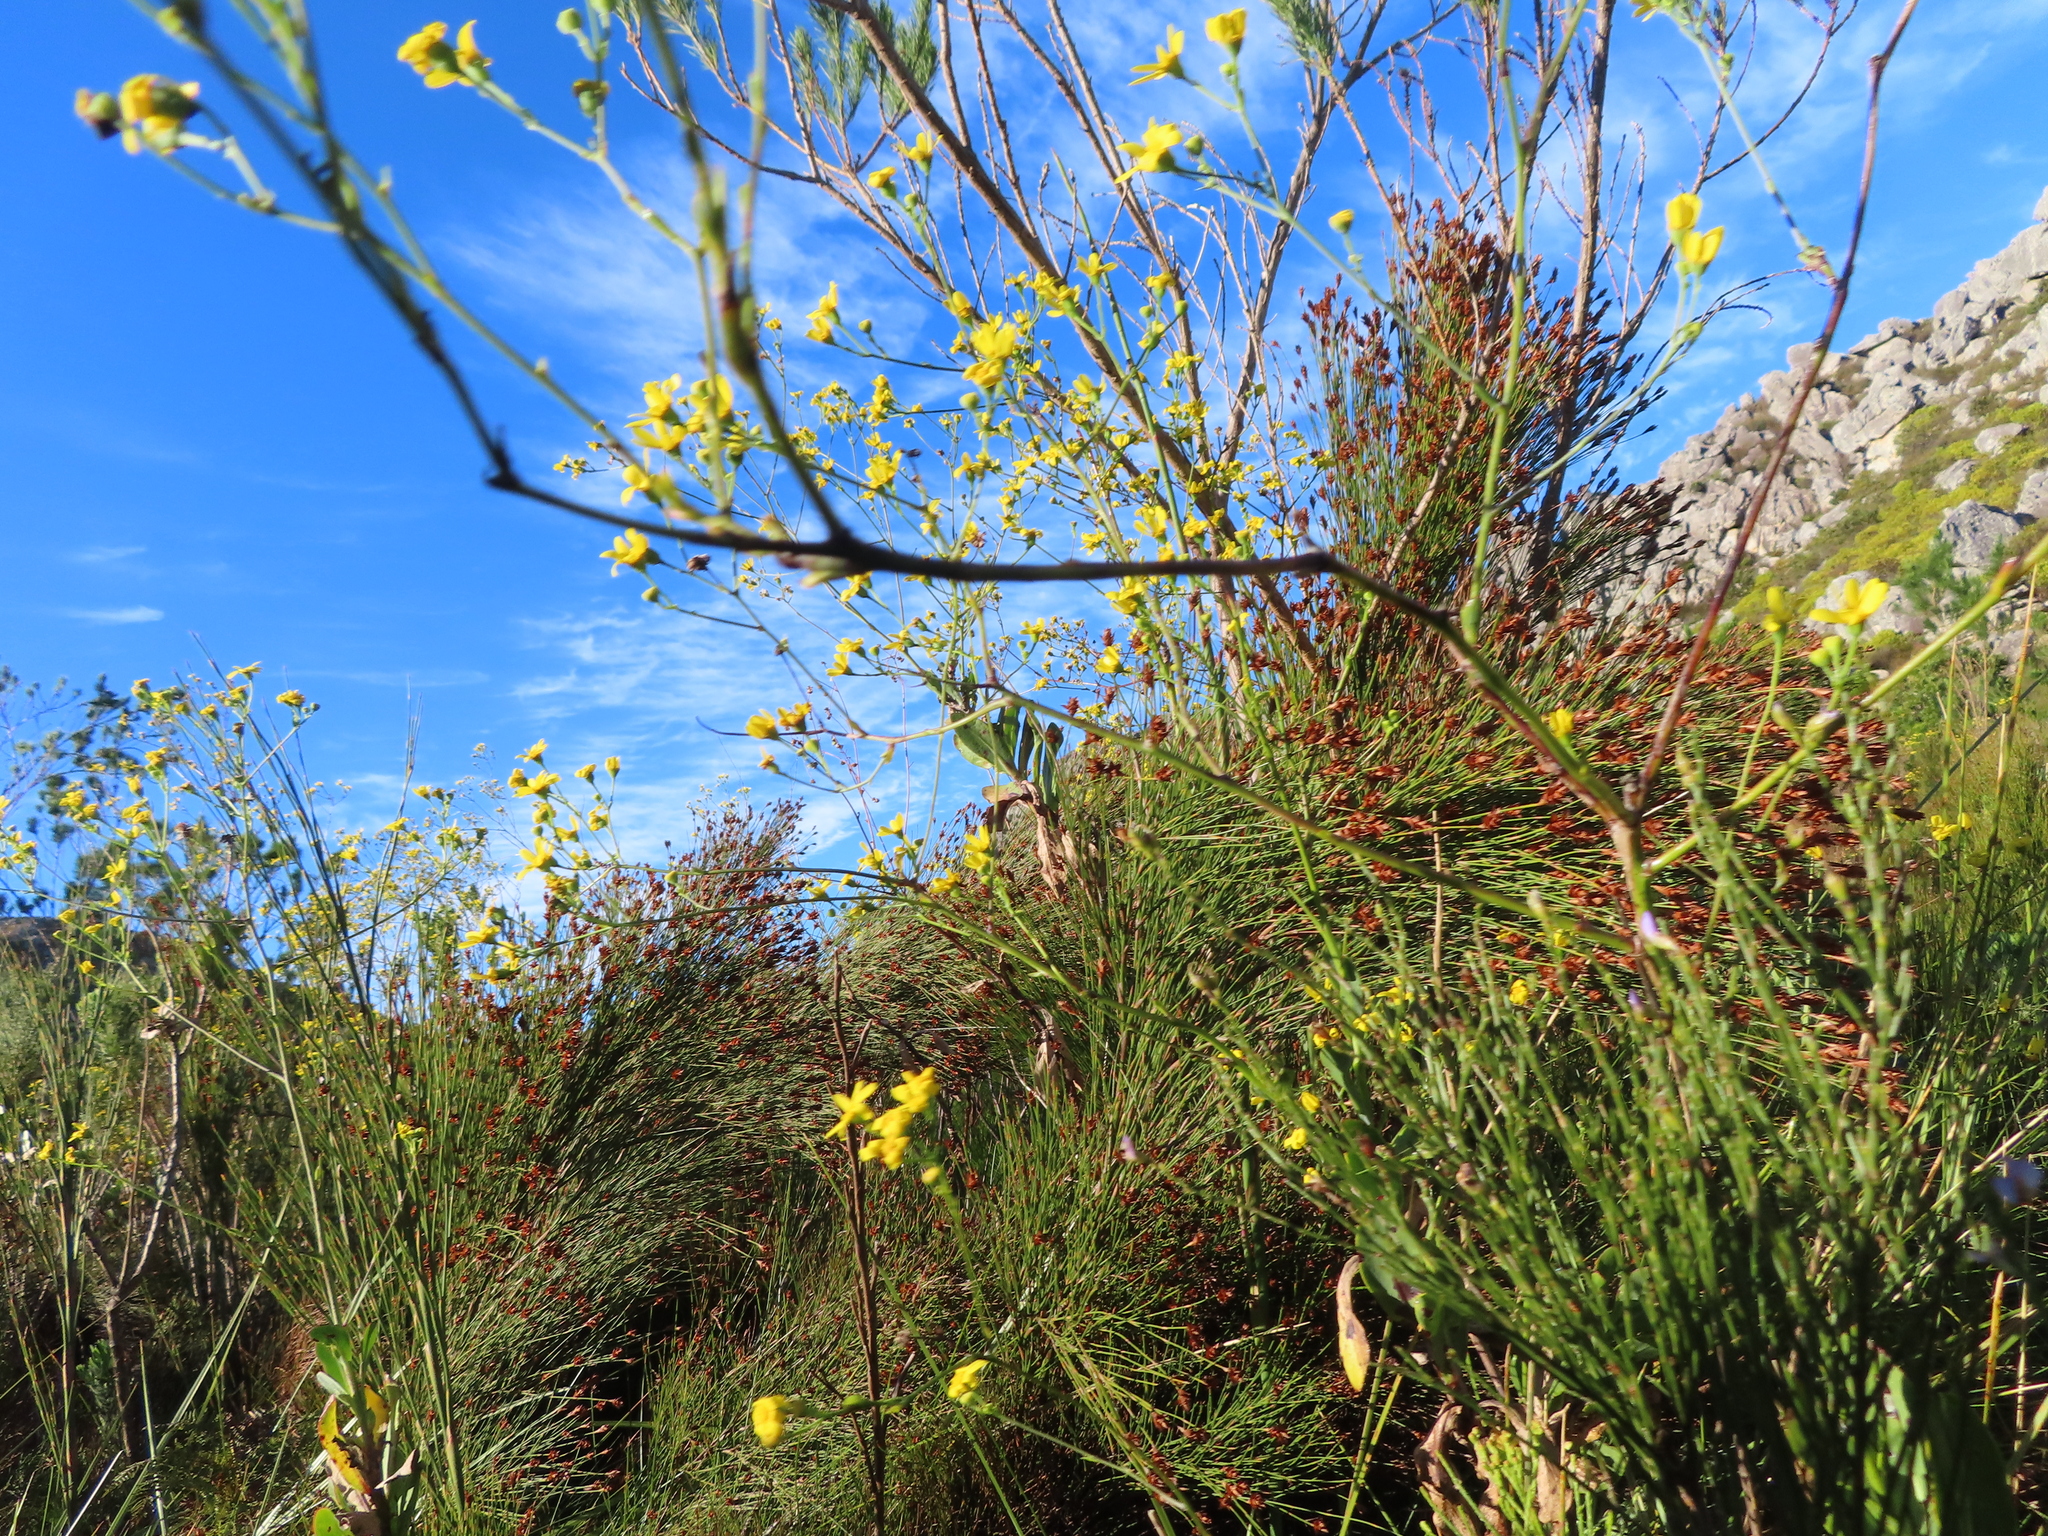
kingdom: Plantae
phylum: Tracheophyta
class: Magnoliopsida
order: Asterales
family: Asteraceae
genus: Othonna
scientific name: Othonna quinquedentata
